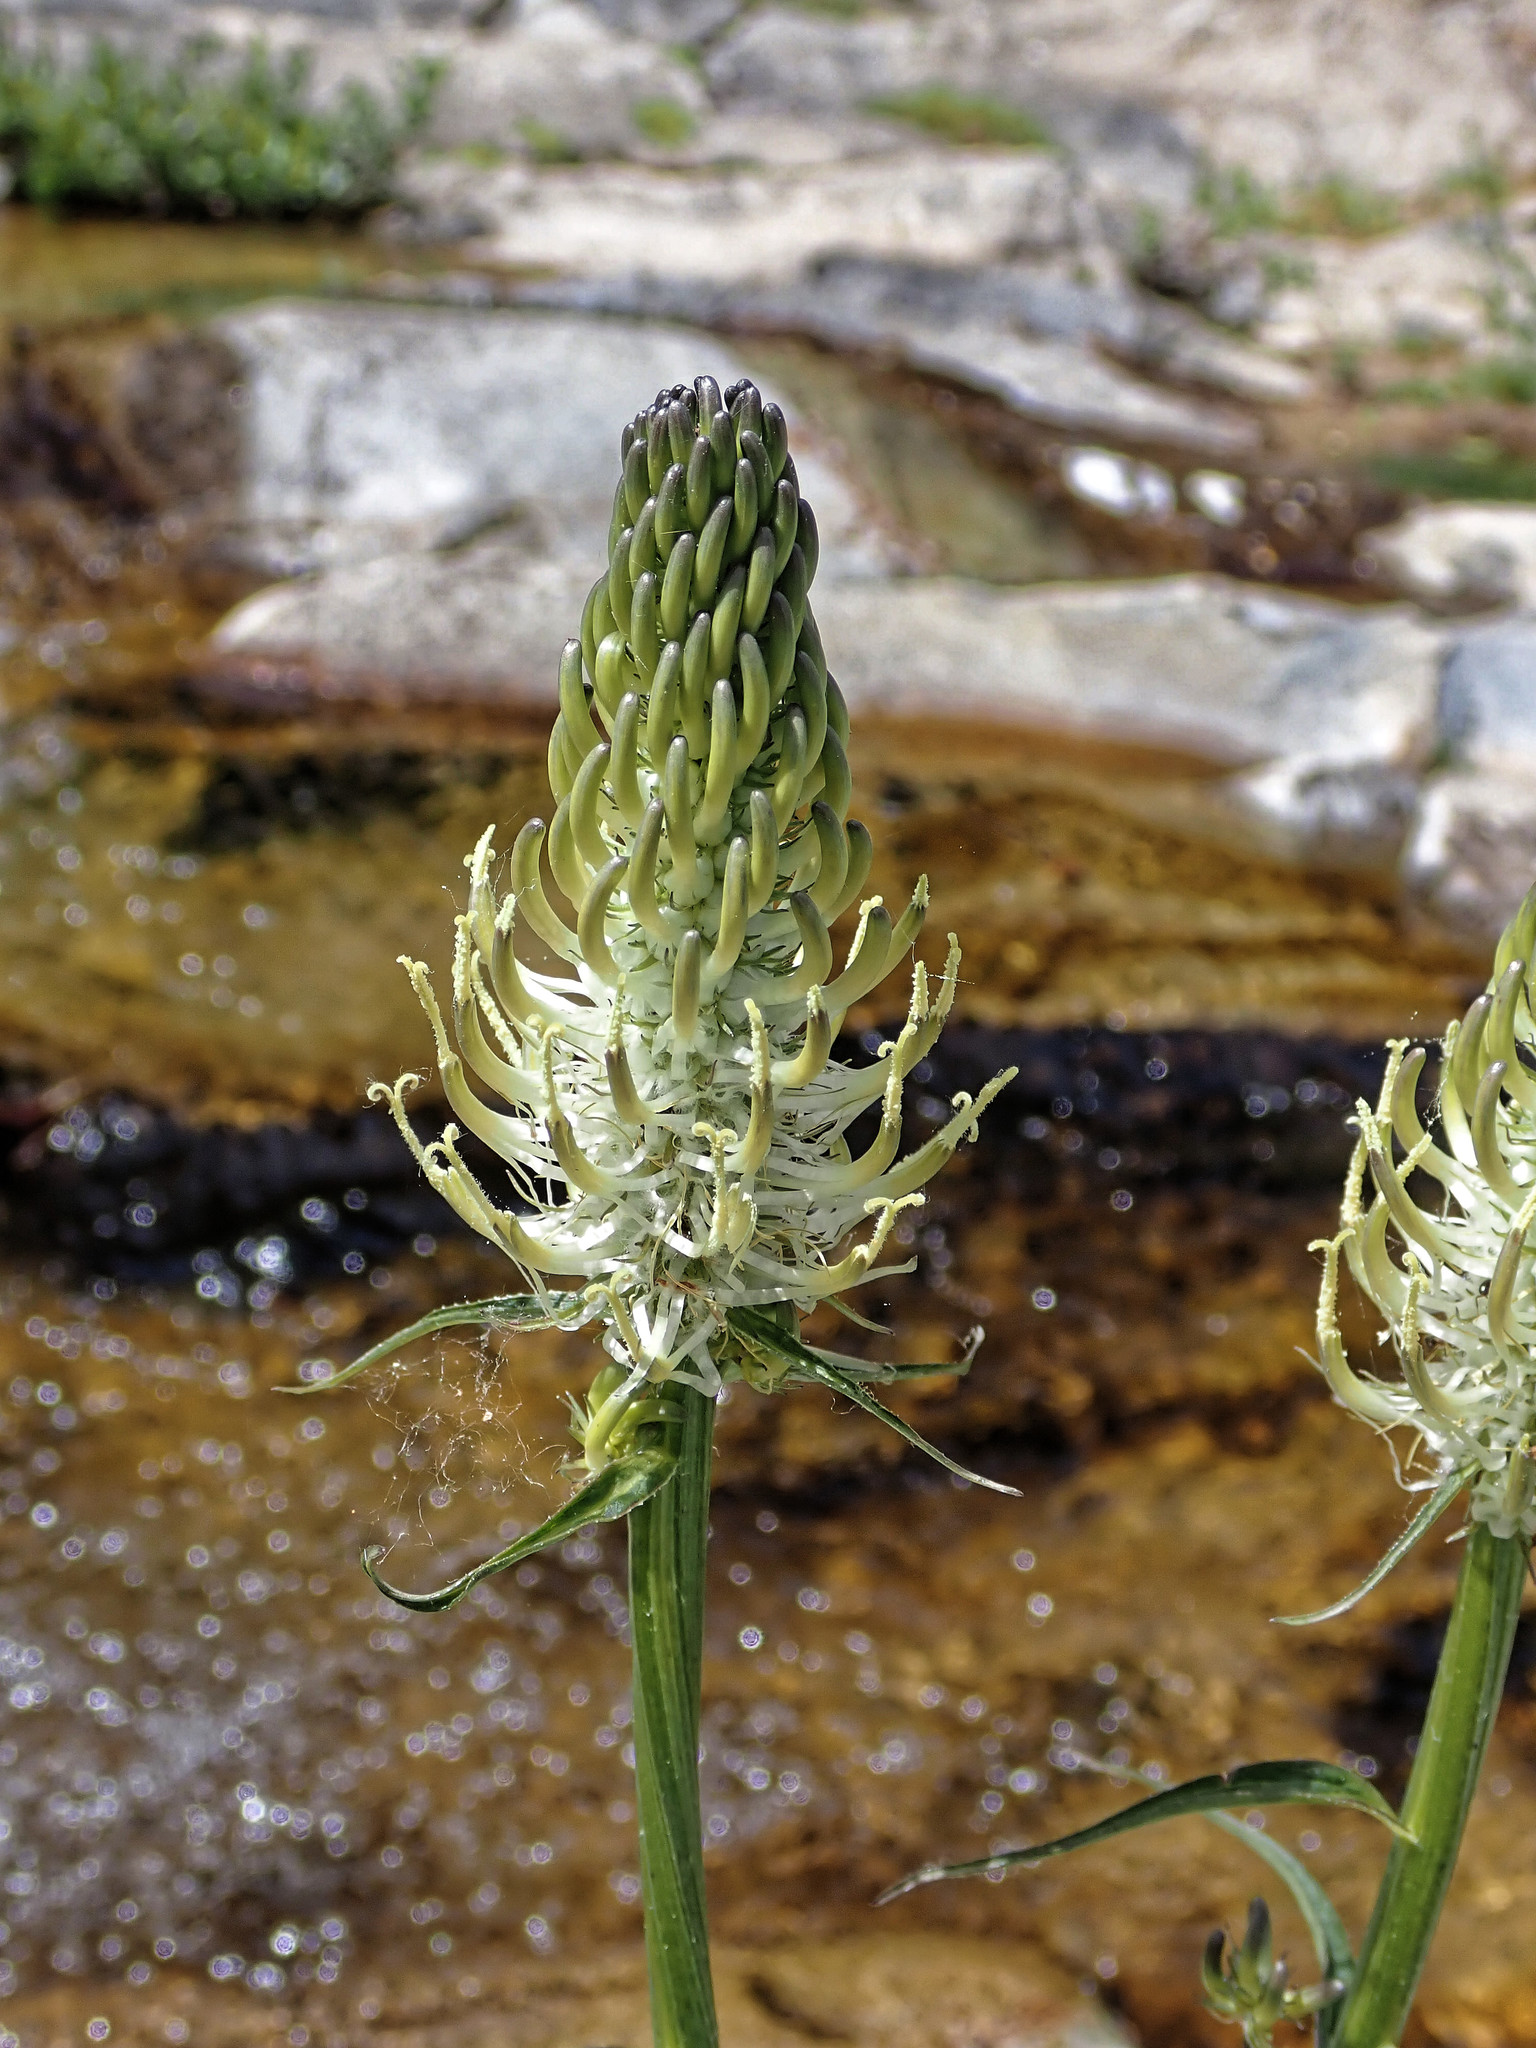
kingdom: Plantae
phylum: Tracheophyta
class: Magnoliopsida
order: Asterales
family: Campanulaceae
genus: Phyteuma
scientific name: Phyteuma spicatum
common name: Spiked rampion
